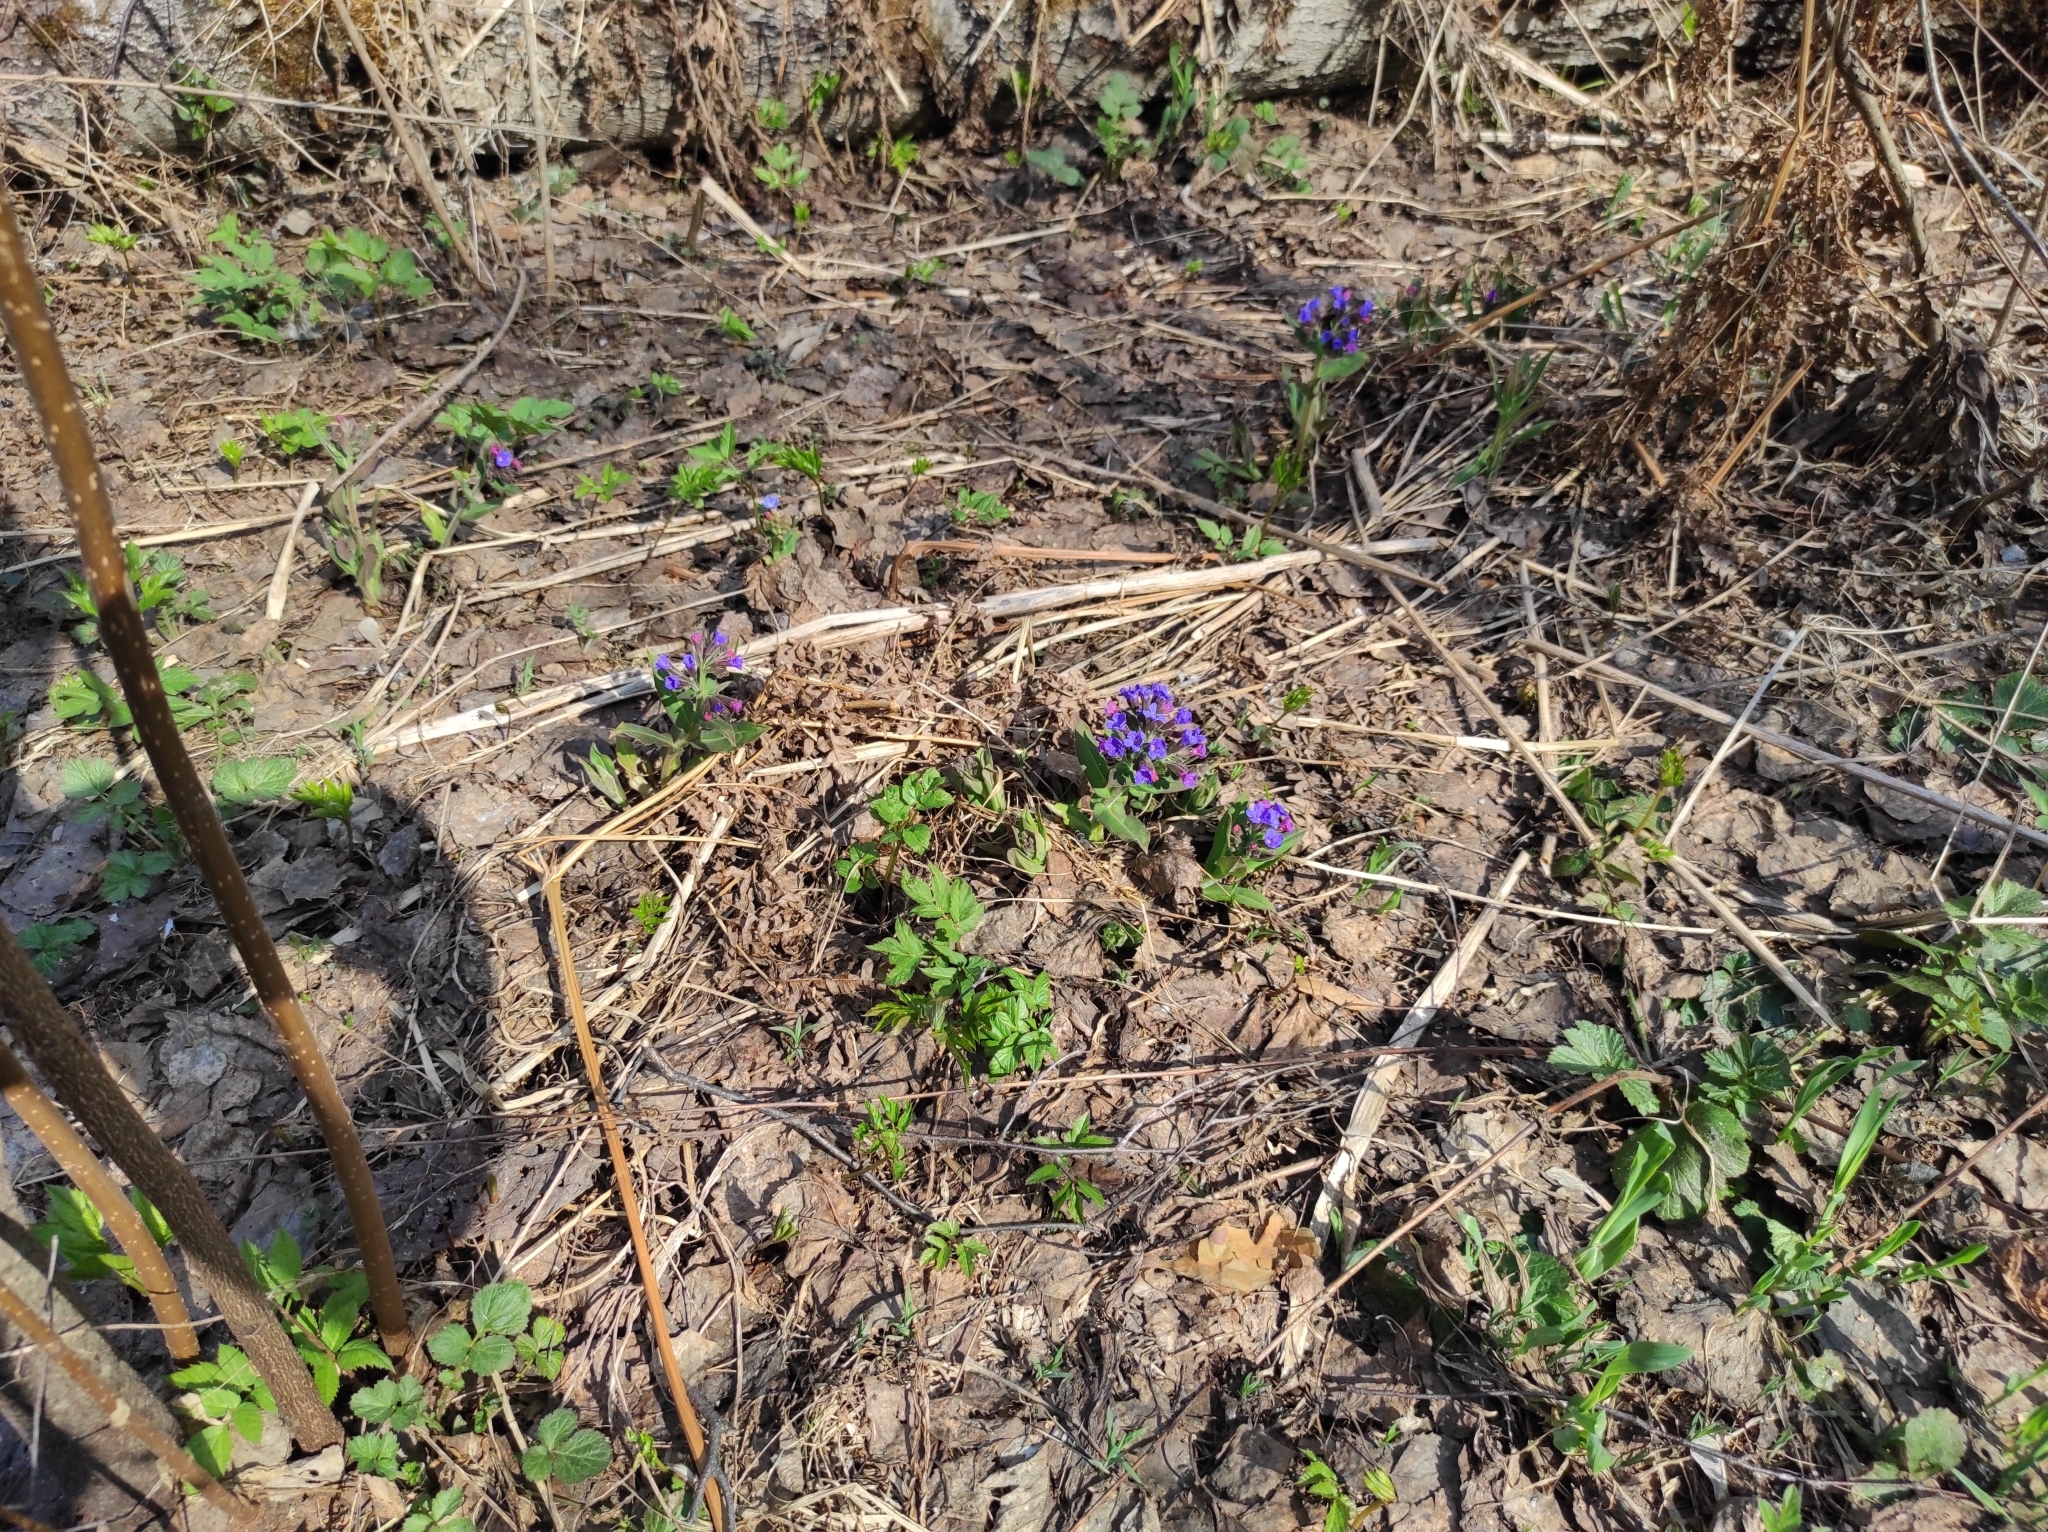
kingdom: Plantae
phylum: Tracheophyta
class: Magnoliopsida
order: Boraginales
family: Boraginaceae
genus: Pulmonaria
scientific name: Pulmonaria mollis
